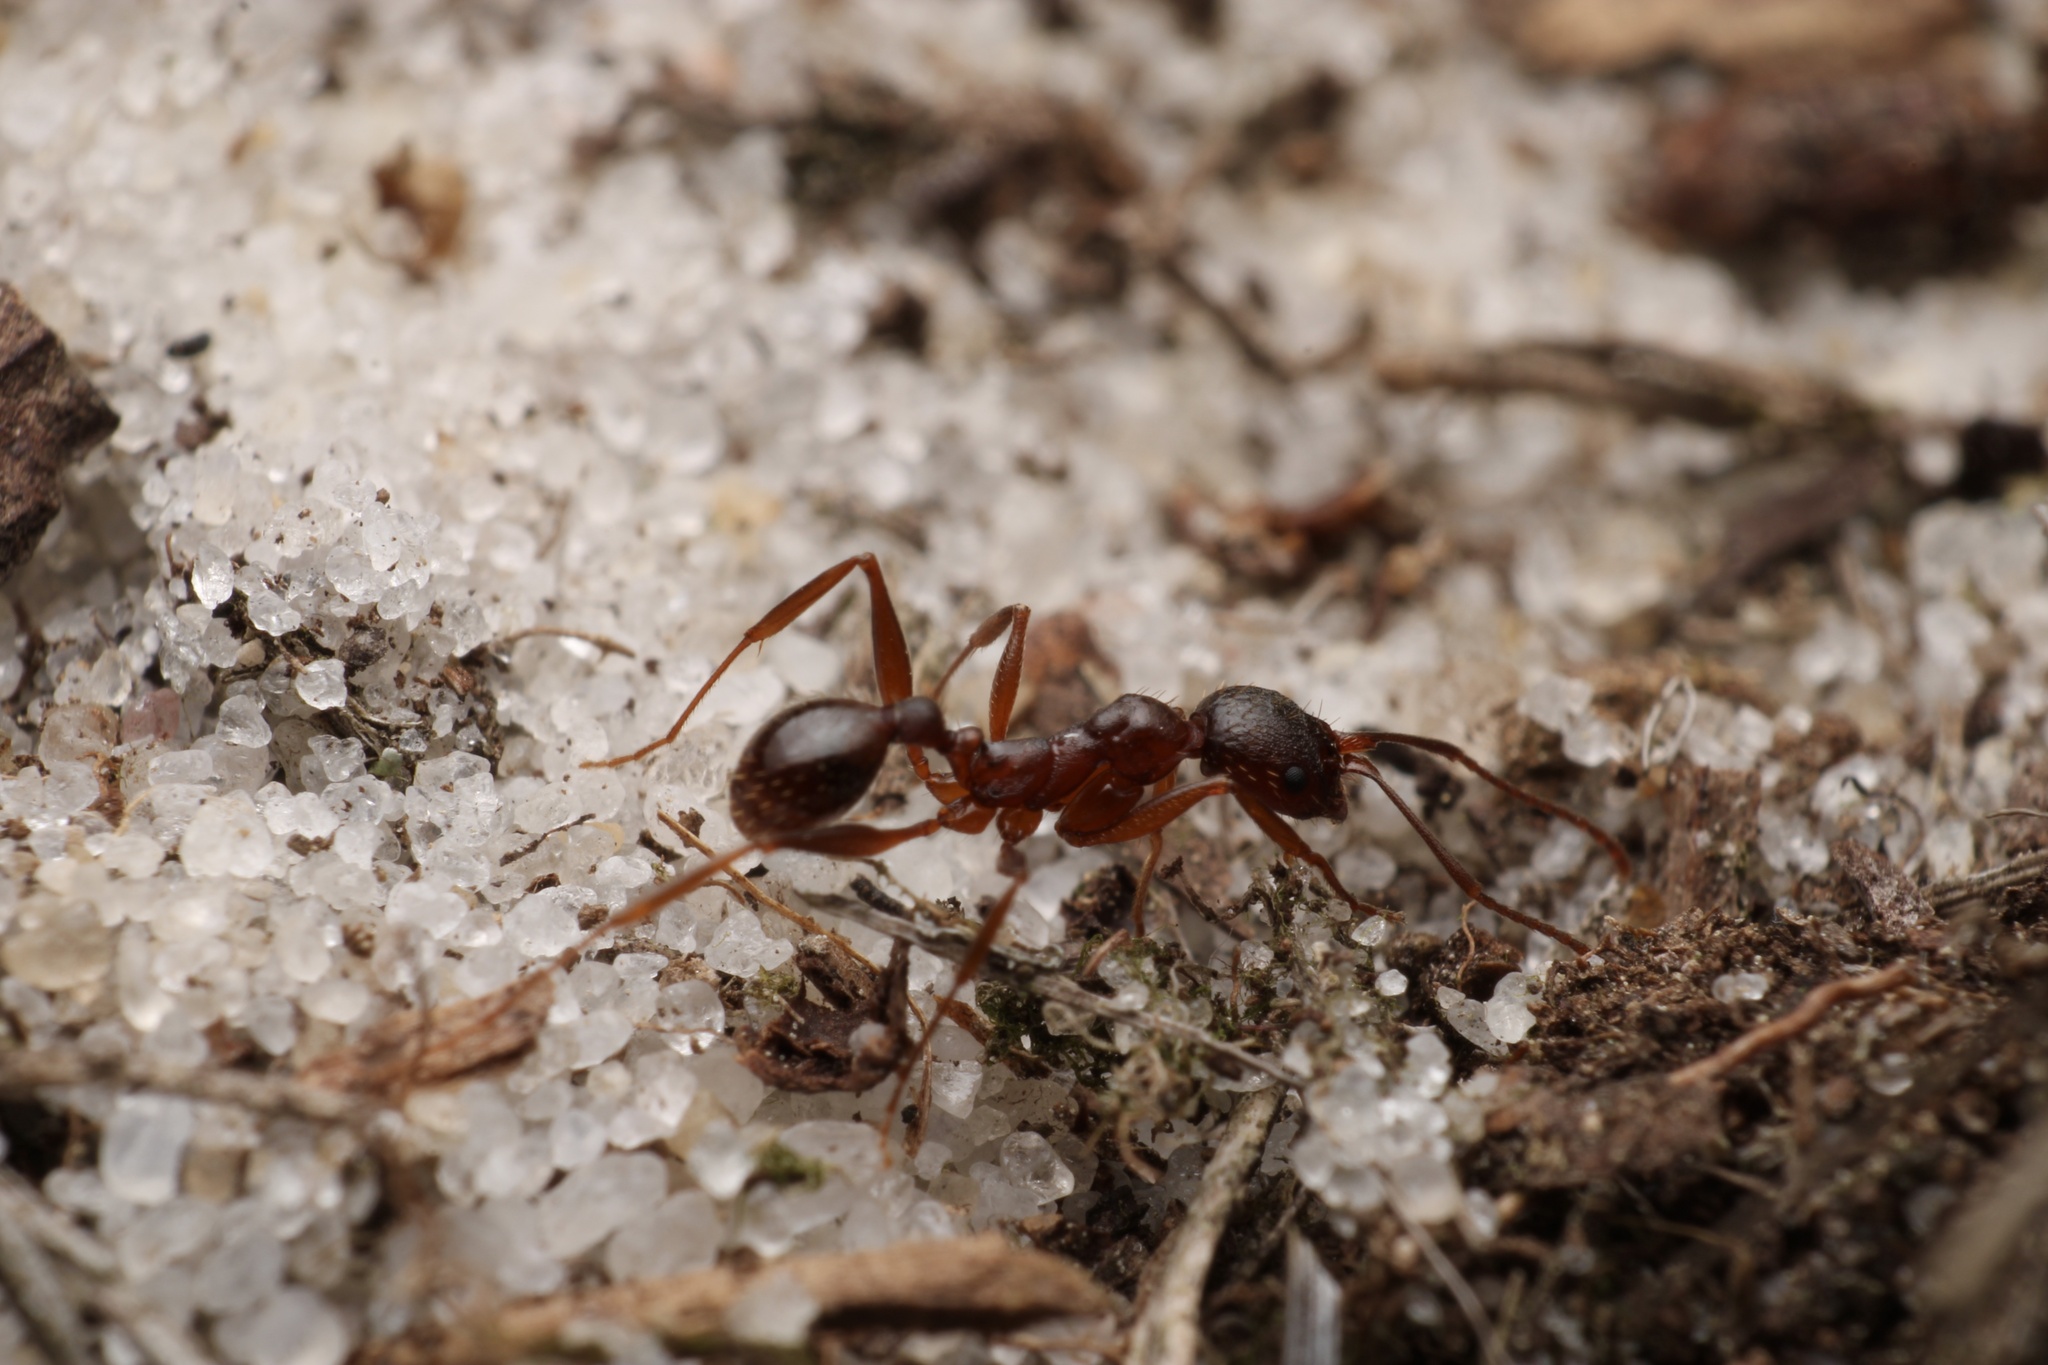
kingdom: Animalia
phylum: Arthropoda
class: Insecta
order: Hymenoptera
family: Formicidae
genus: Aphaenogaster
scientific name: Aphaenogaster treatae
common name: Treat's collared ant
